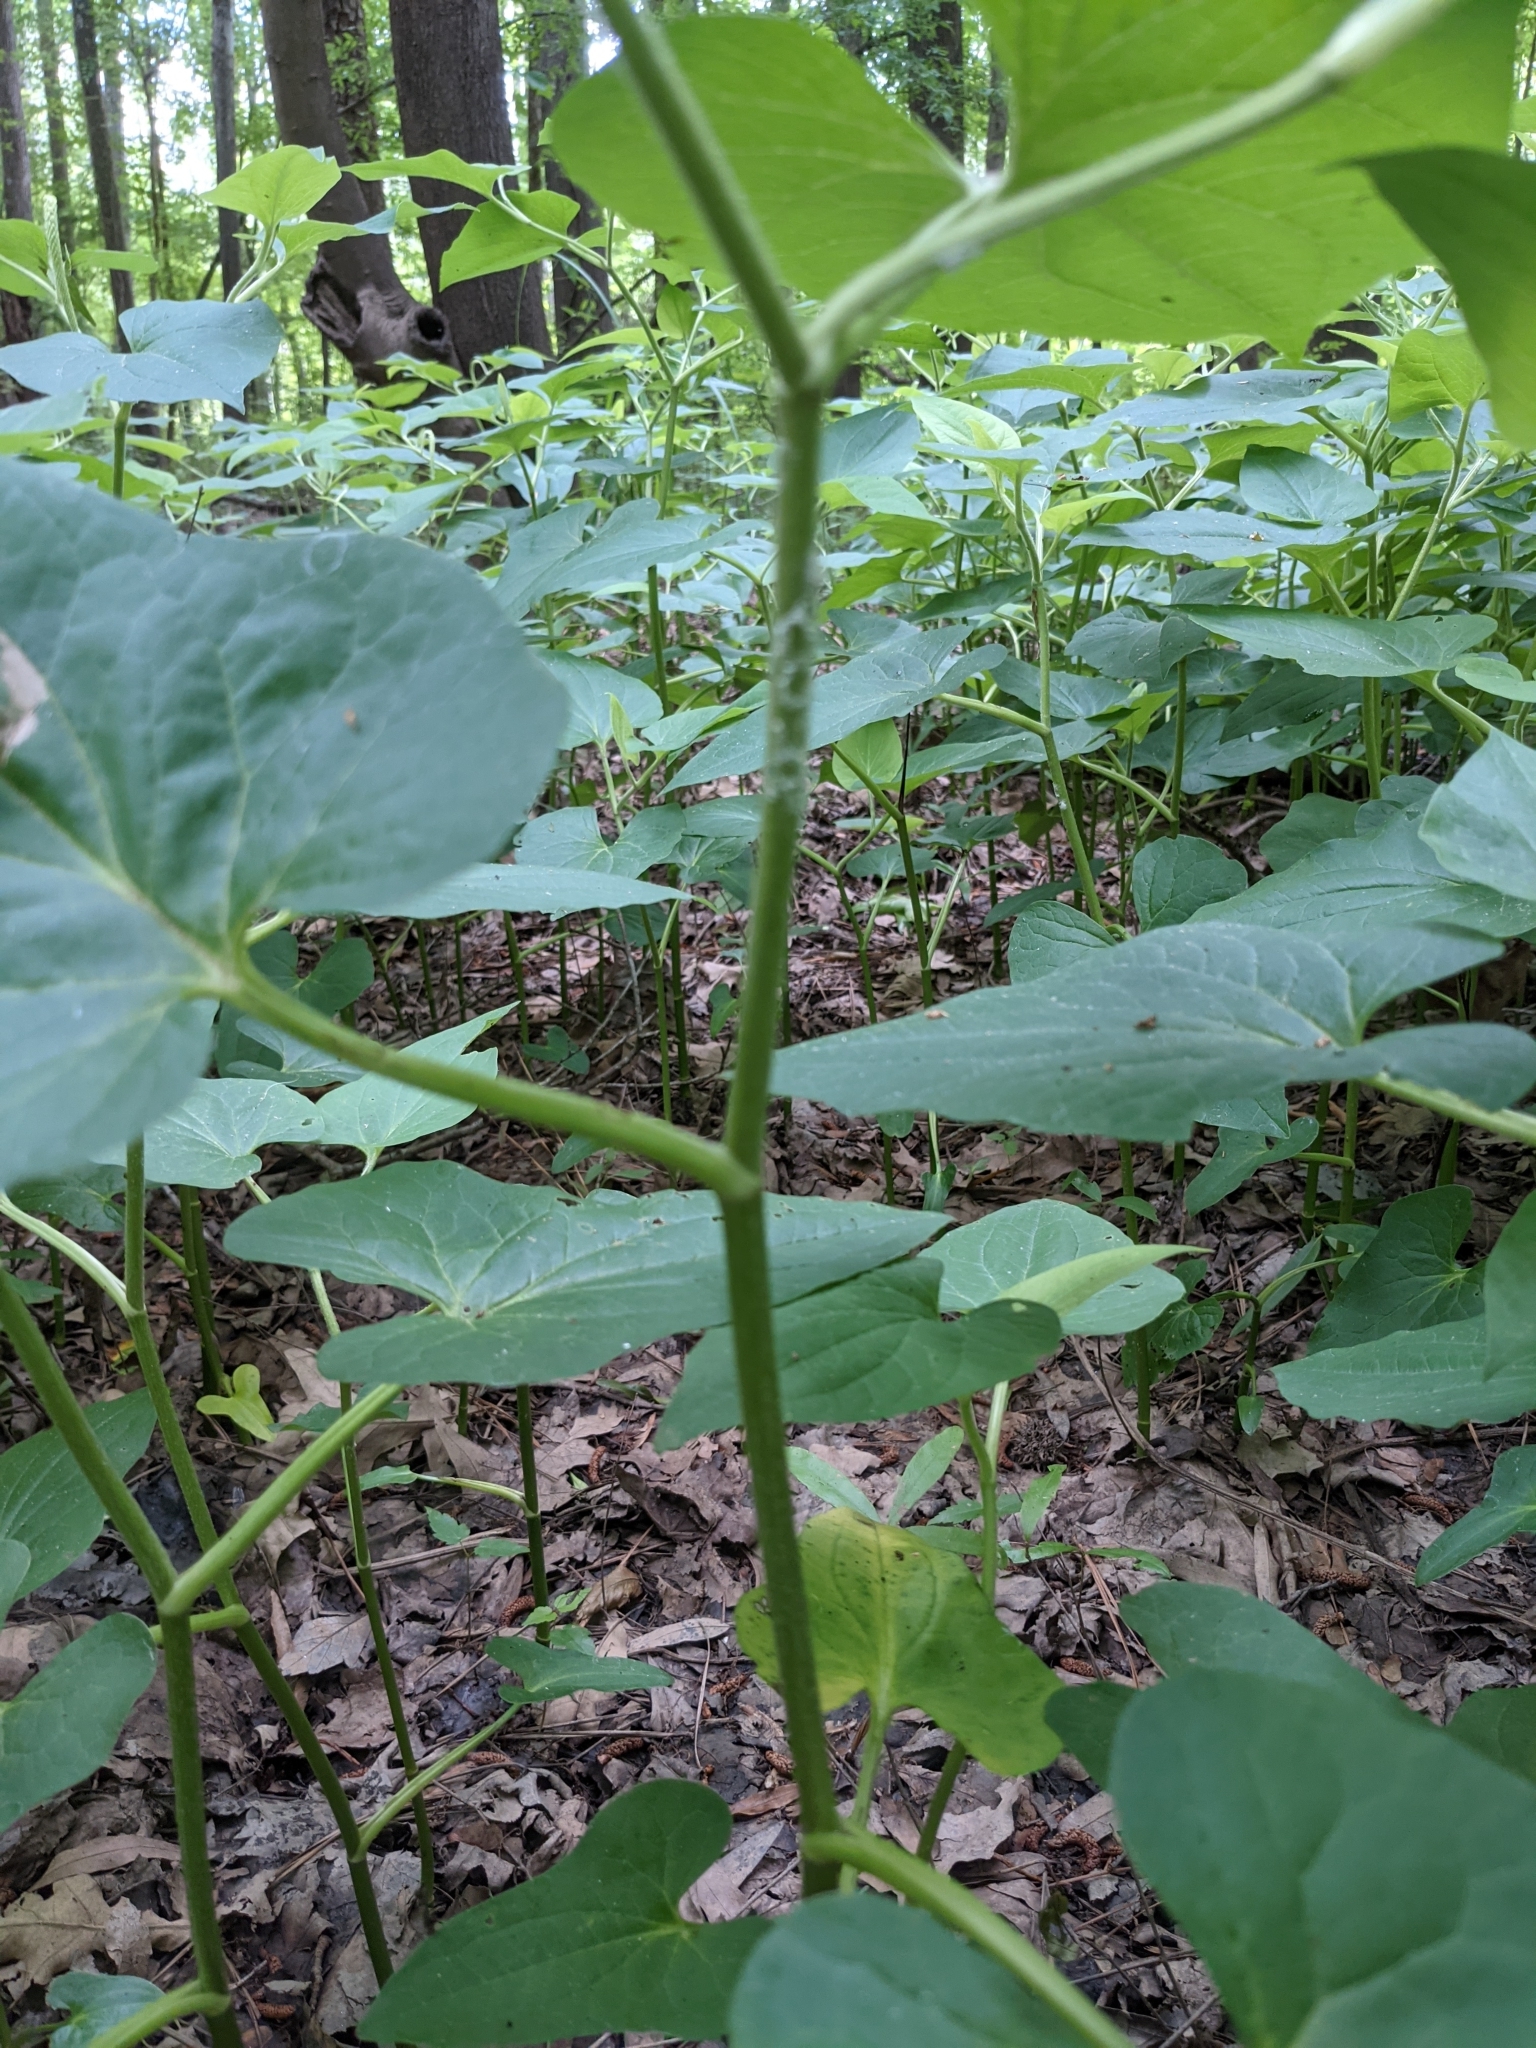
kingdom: Plantae
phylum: Tracheophyta
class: Magnoliopsida
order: Piperales
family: Saururaceae
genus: Saururus
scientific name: Saururus cernuus
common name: Lizard's-tail
